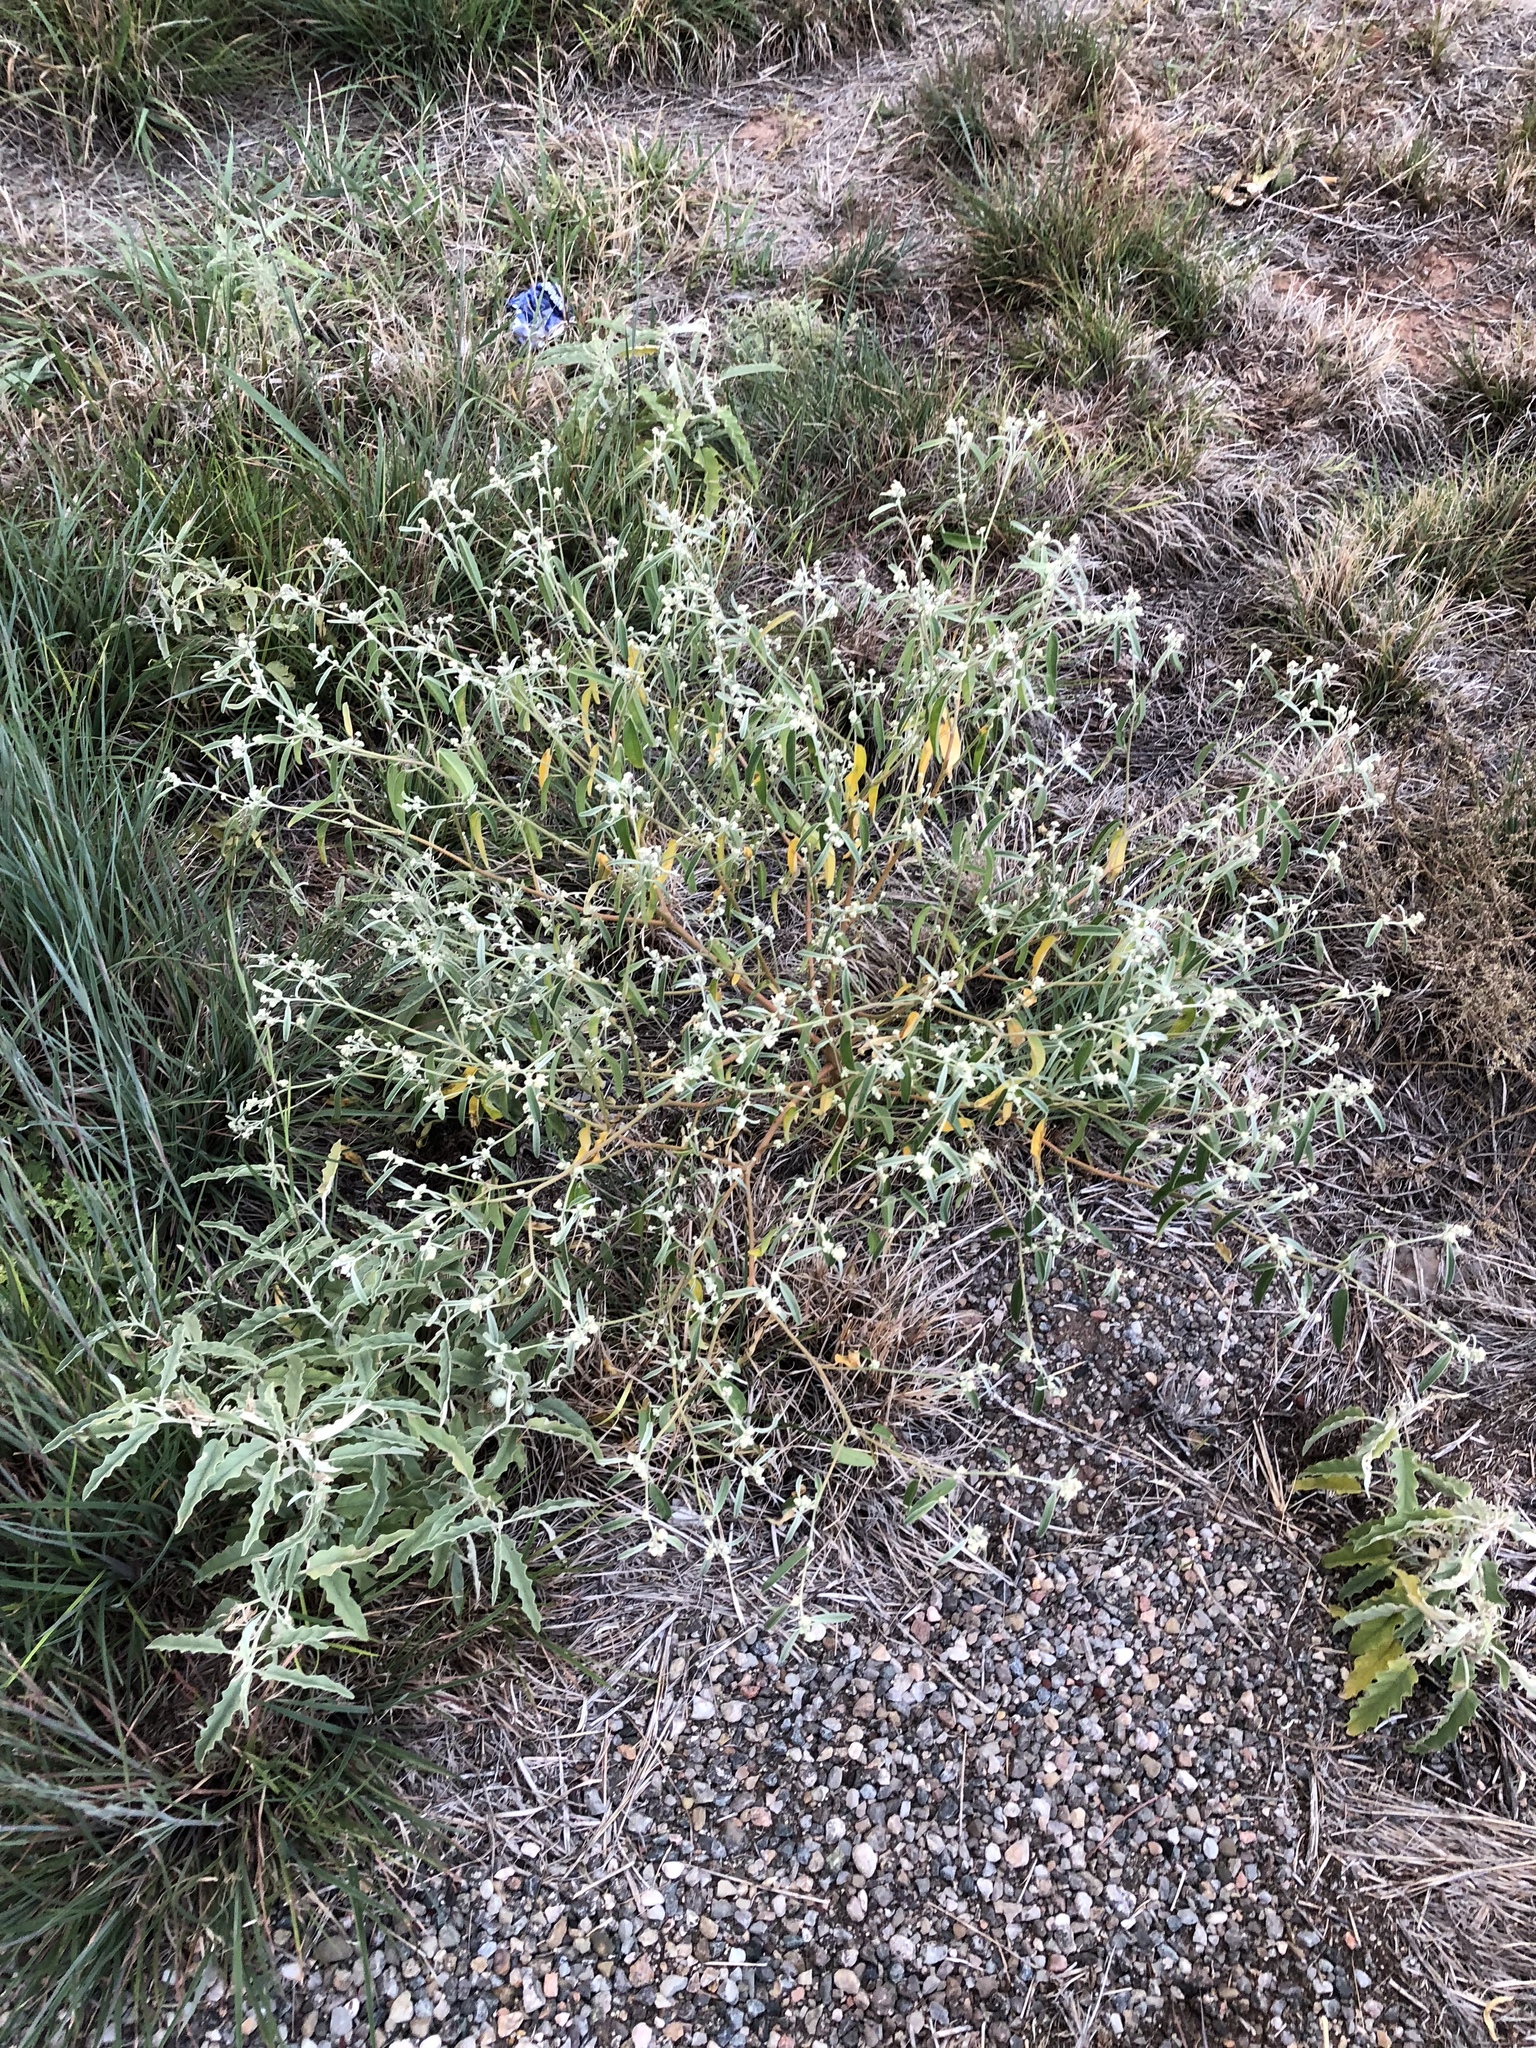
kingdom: Plantae
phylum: Tracheophyta
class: Magnoliopsida
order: Malpighiales
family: Euphorbiaceae
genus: Croton
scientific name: Croton texensis
